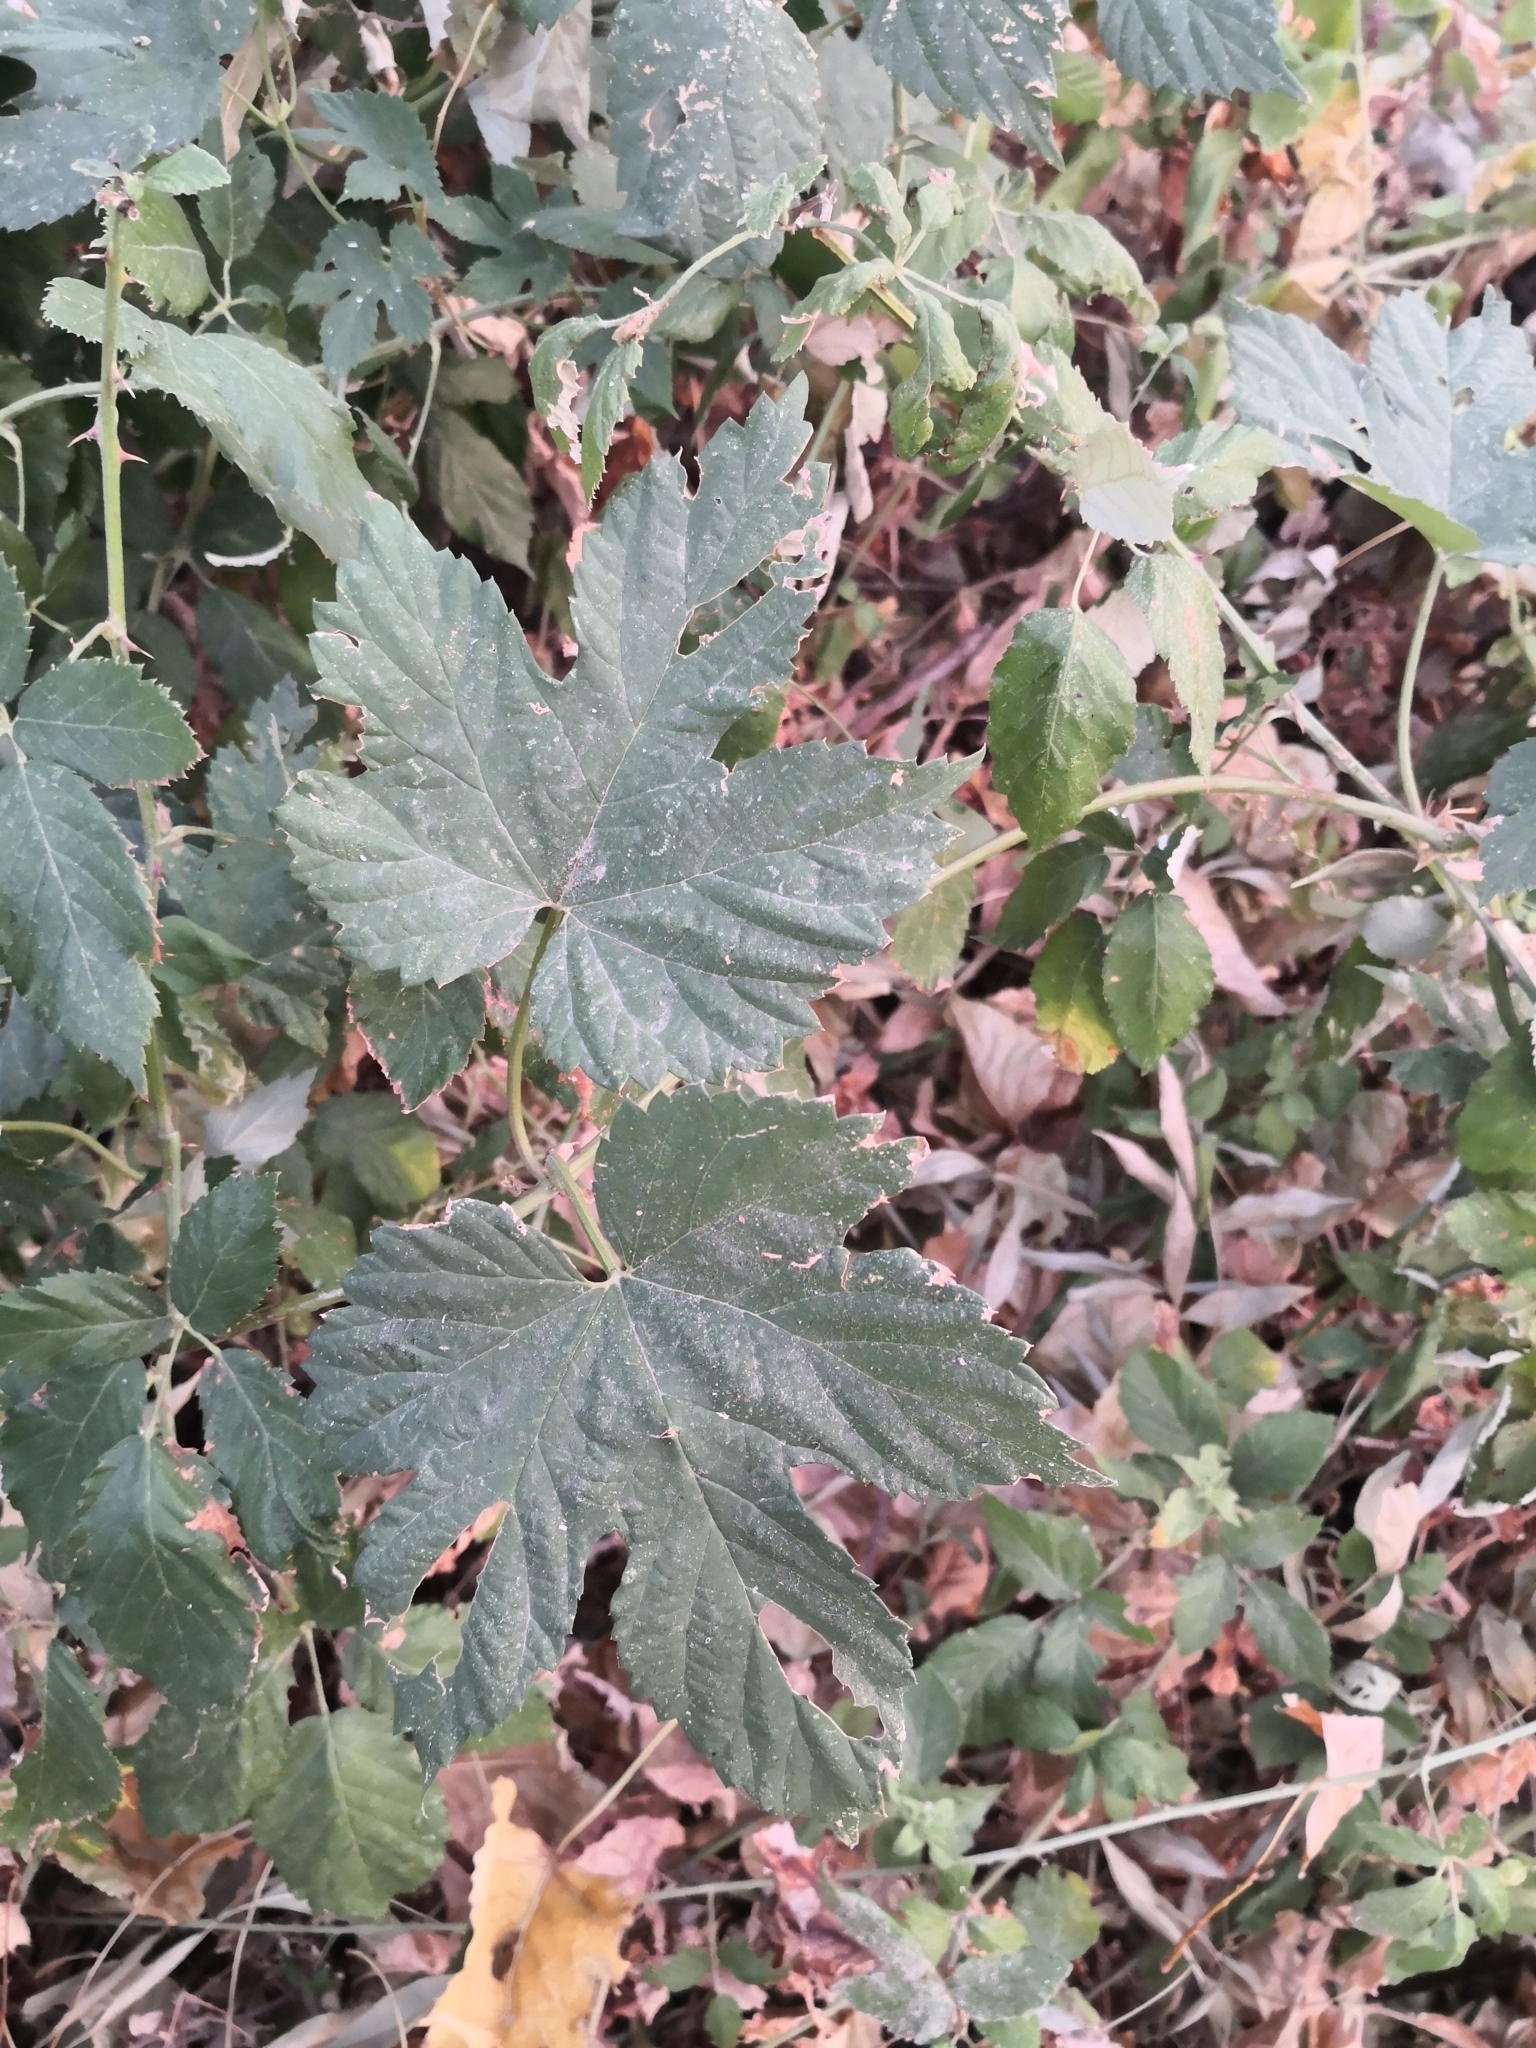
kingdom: Plantae
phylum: Tracheophyta
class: Magnoliopsida
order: Rosales
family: Cannabaceae
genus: Humulus
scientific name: Humulus lupulus
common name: Hop
